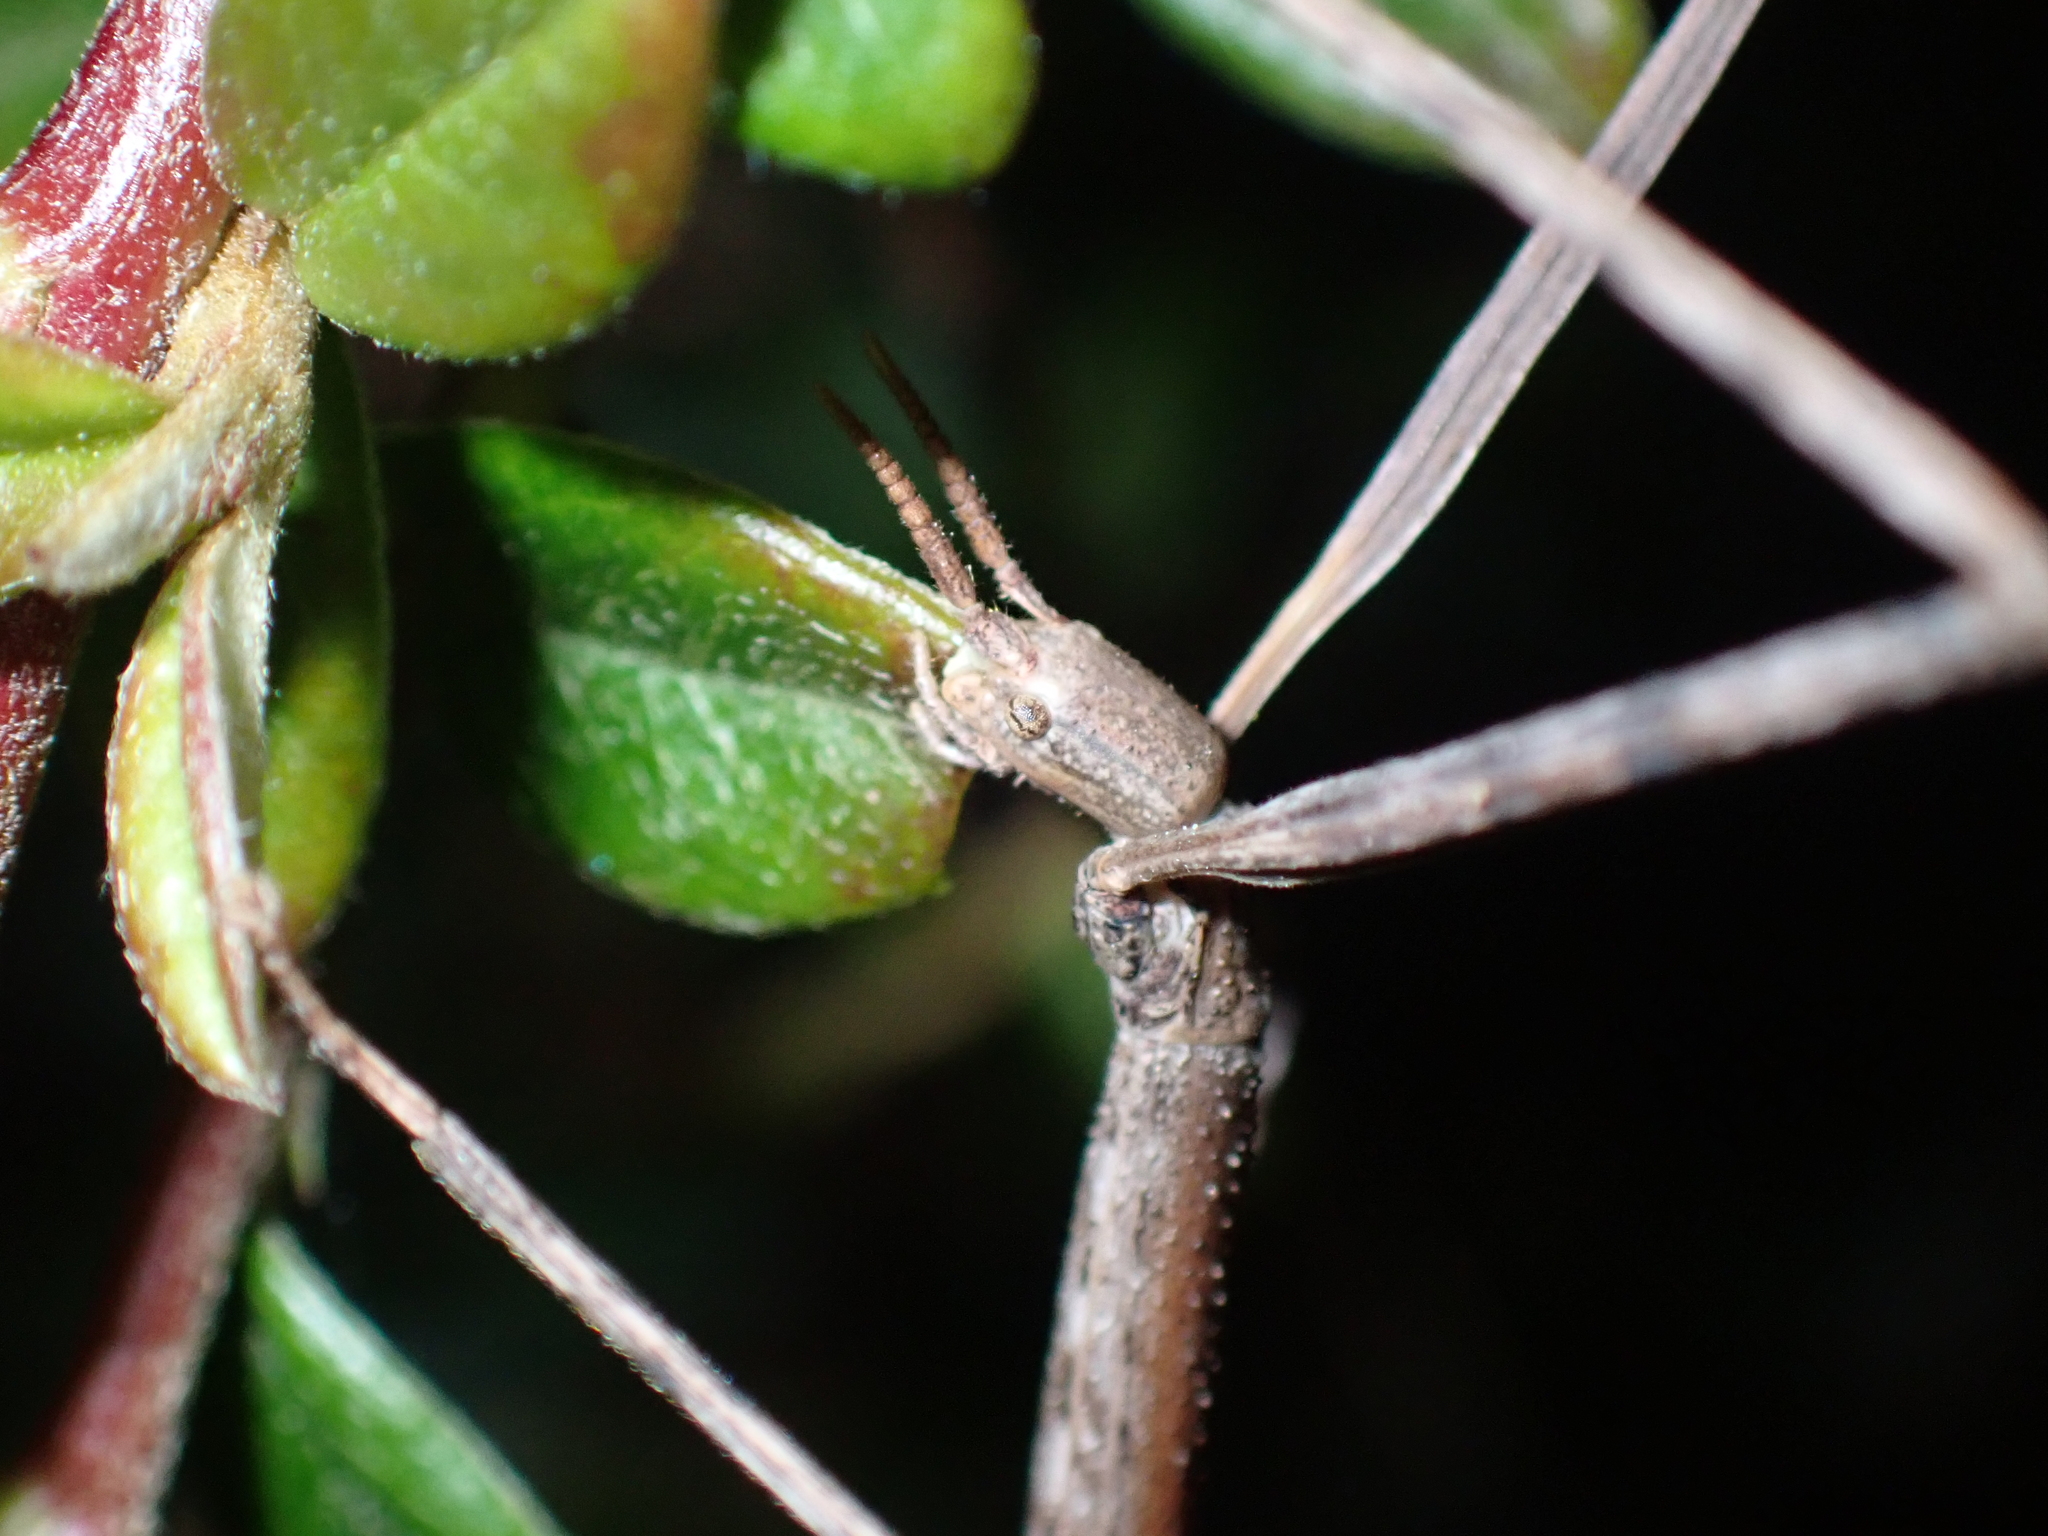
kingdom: Animalia
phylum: Arthropoda
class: Insecta
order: Phasmida
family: Bacillidae
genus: Clonopsis
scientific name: Clonopsis gallica
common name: French stick insect
